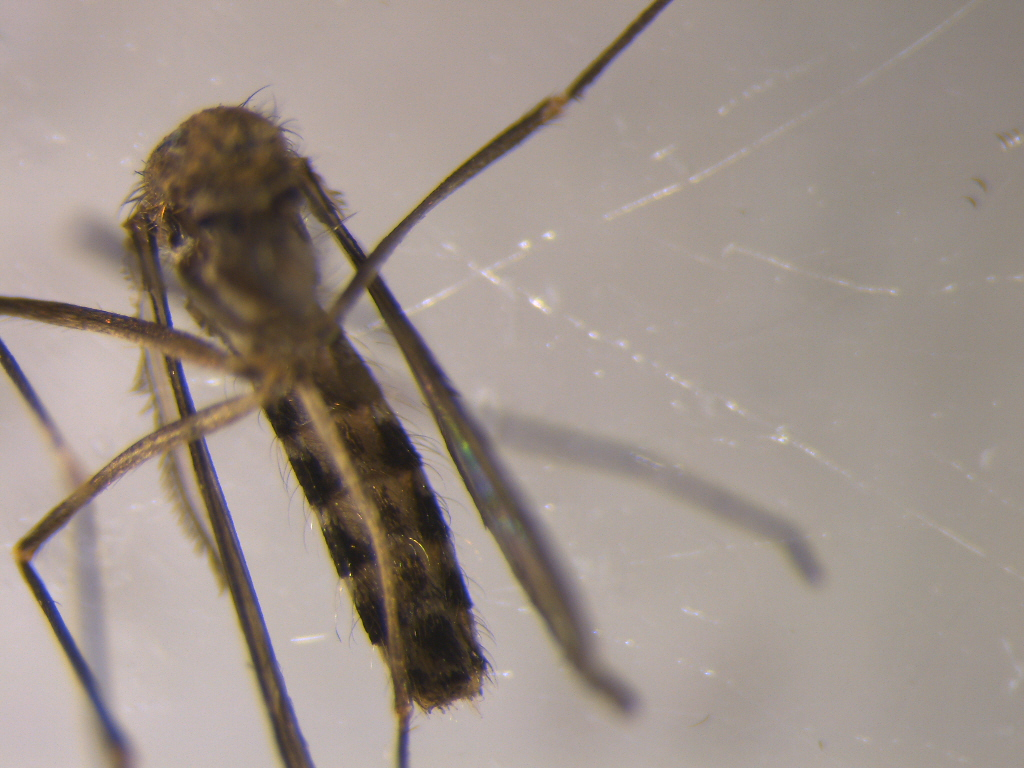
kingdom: Animalia
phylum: Arthropoda
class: Insecta
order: Diptera
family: Culicidae
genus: Culex
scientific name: Culex pervigilans
